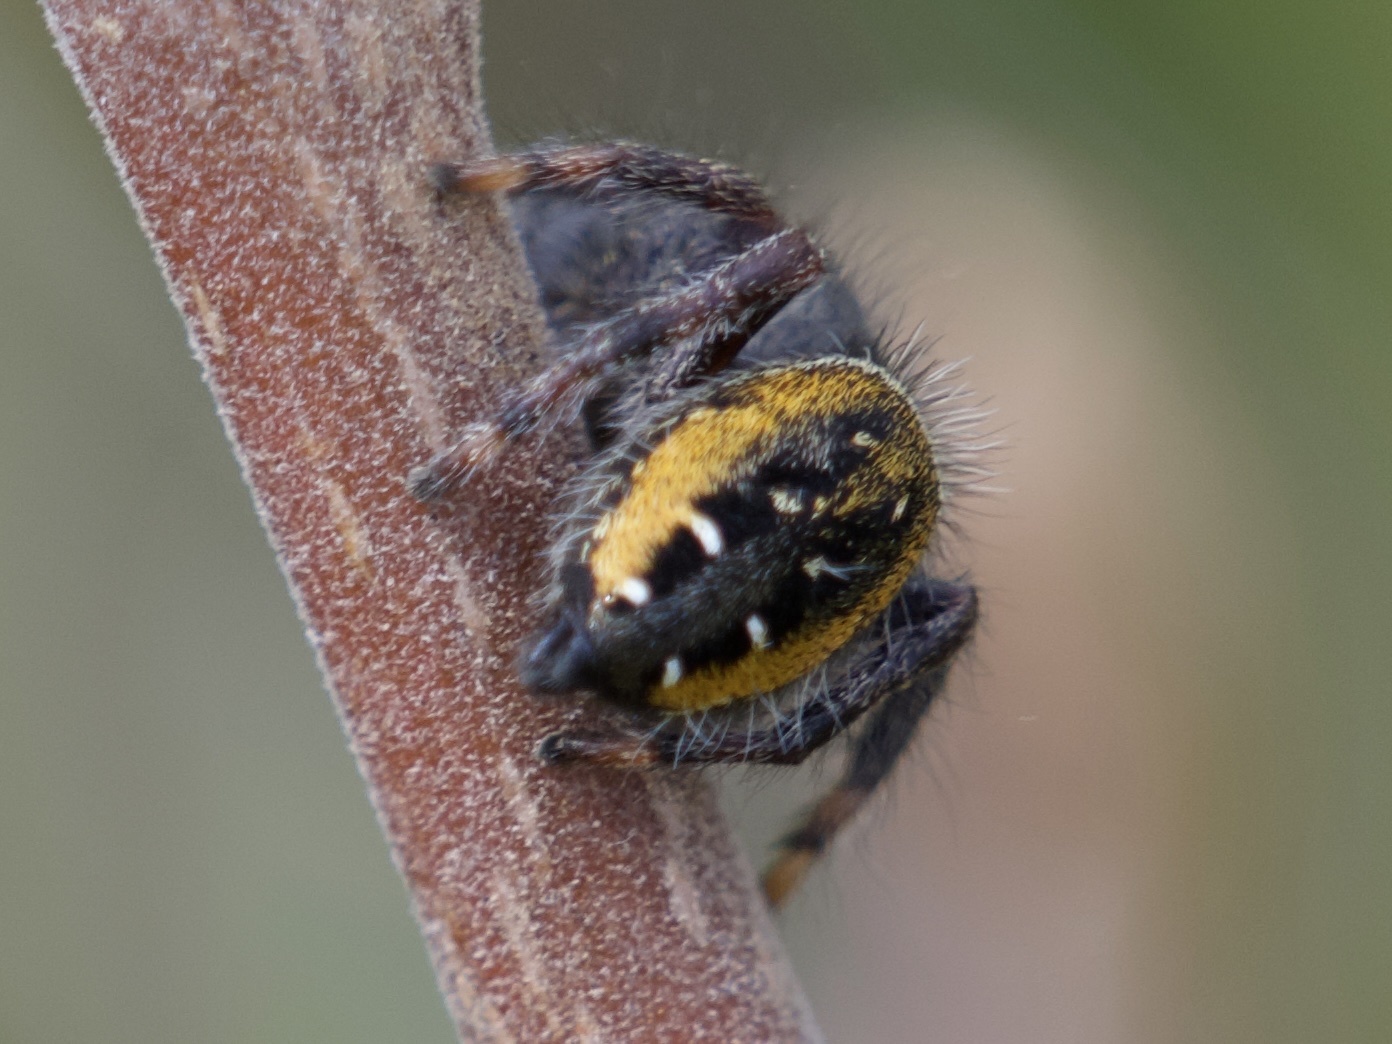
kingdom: Animalia
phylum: Arthropoda
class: Arachnida
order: Araneae
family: Salticidae
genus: Phidippus
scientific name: Phidippus johnsoni
